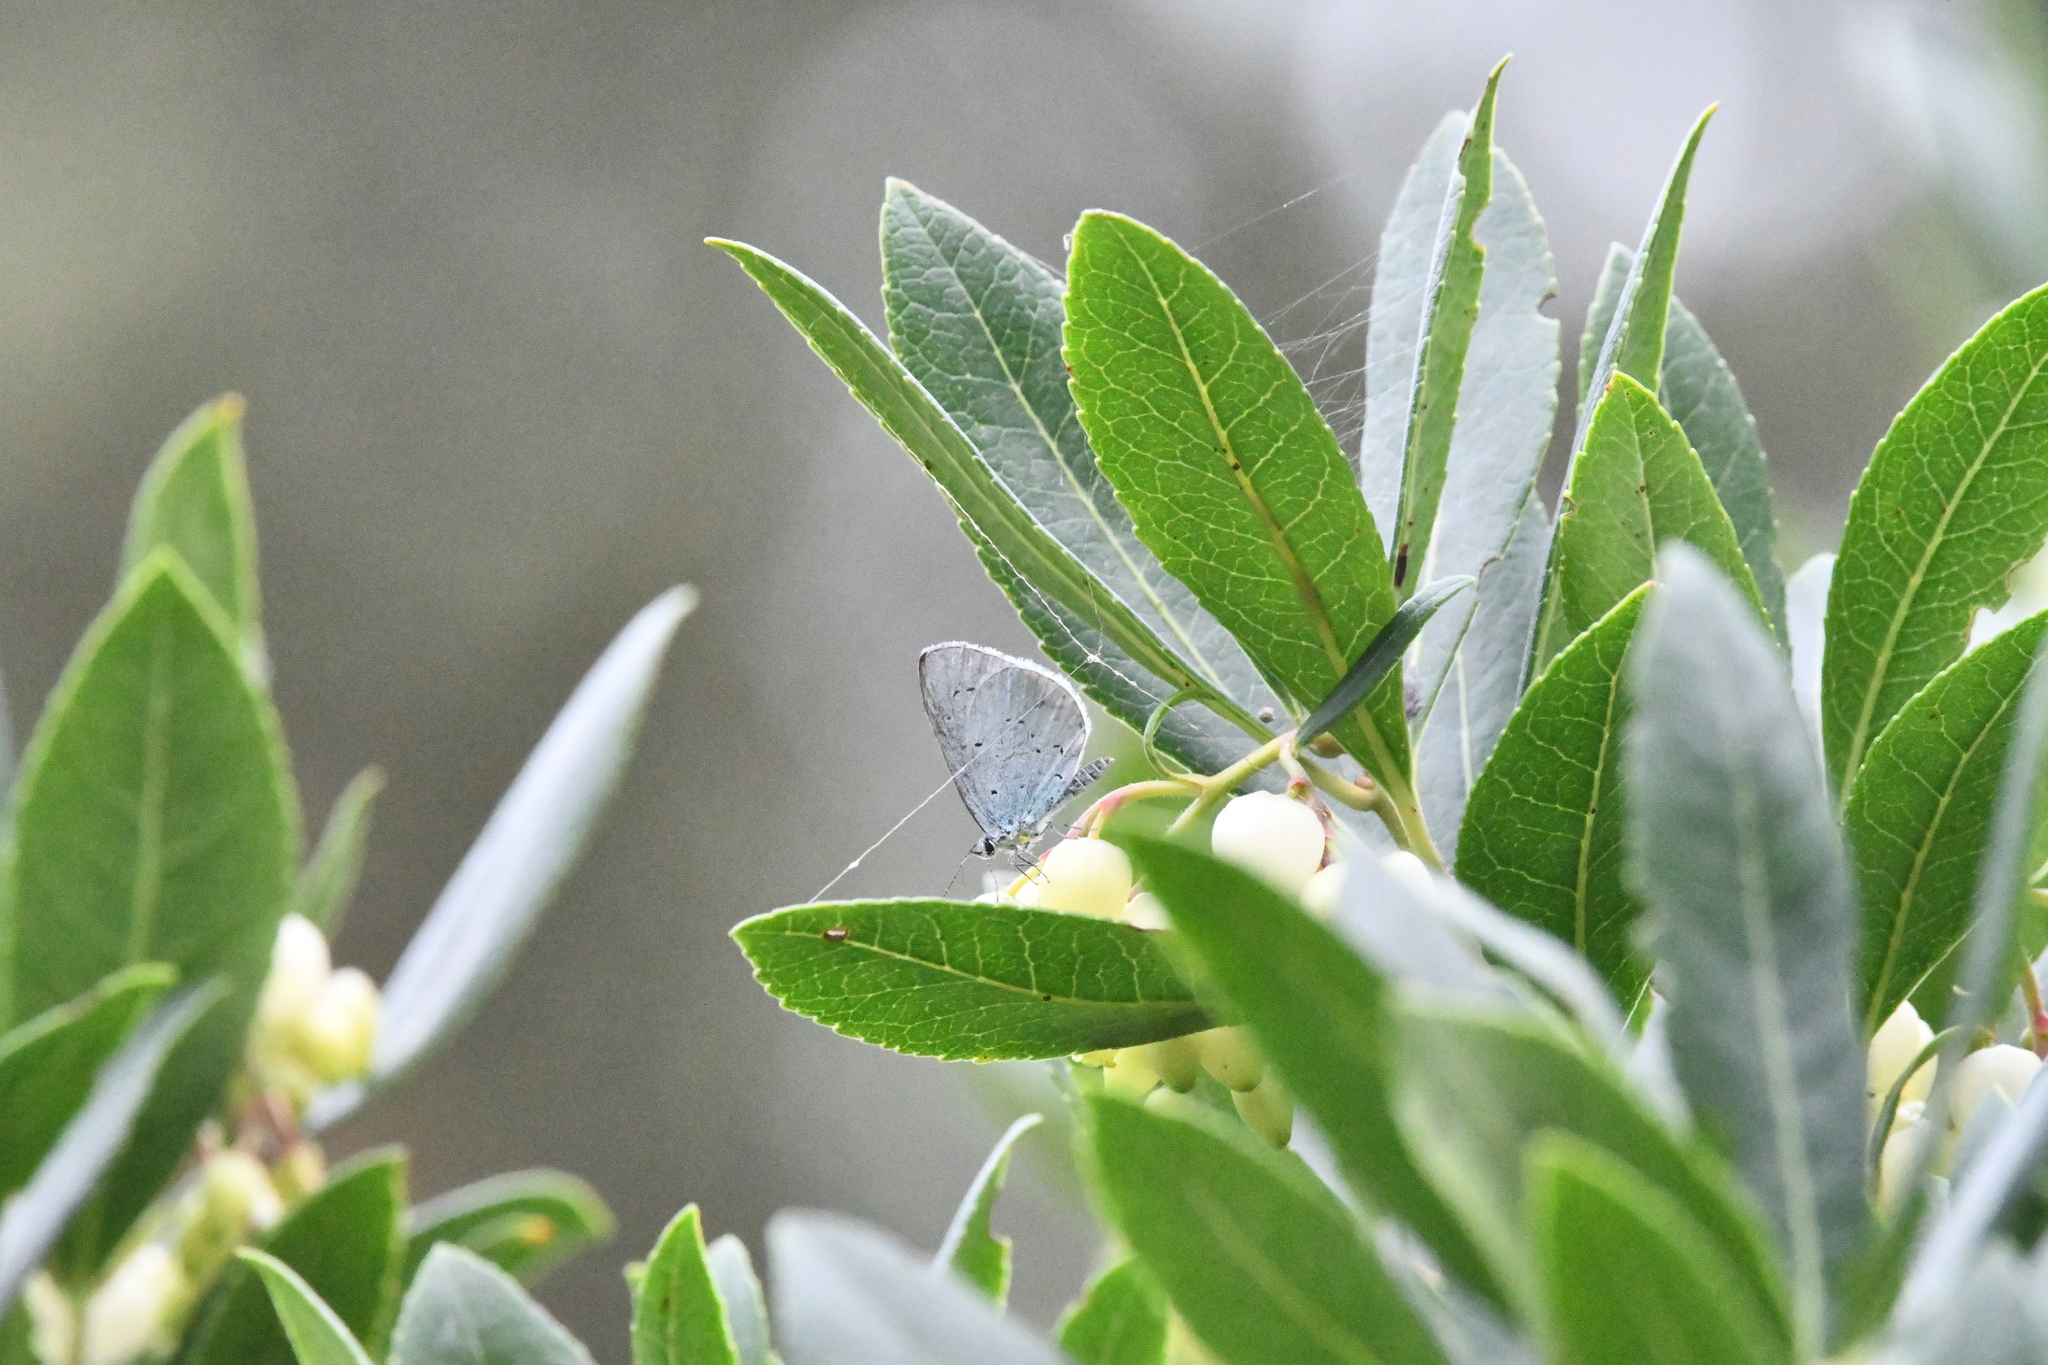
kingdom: Animalia
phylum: Arthropoda
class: Insecta
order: Lepidoptera
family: Lycaenidae
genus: Celastrina
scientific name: Celastrina argiolus
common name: Holly blue
